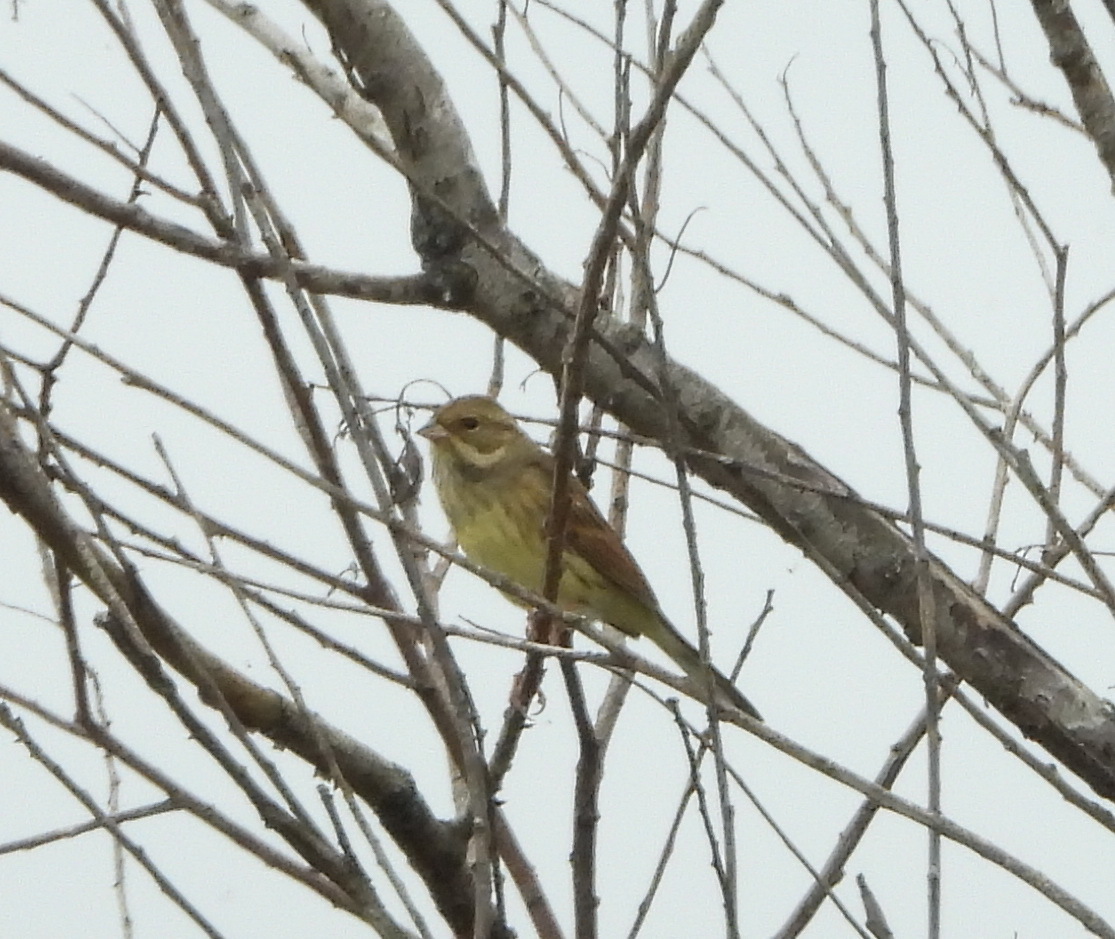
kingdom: Animalia
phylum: Chordata
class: Aves
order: Passeriformes
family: Emberizidae
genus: Emberiza
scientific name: Emberiza spodocephala
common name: Black-faced bunting
